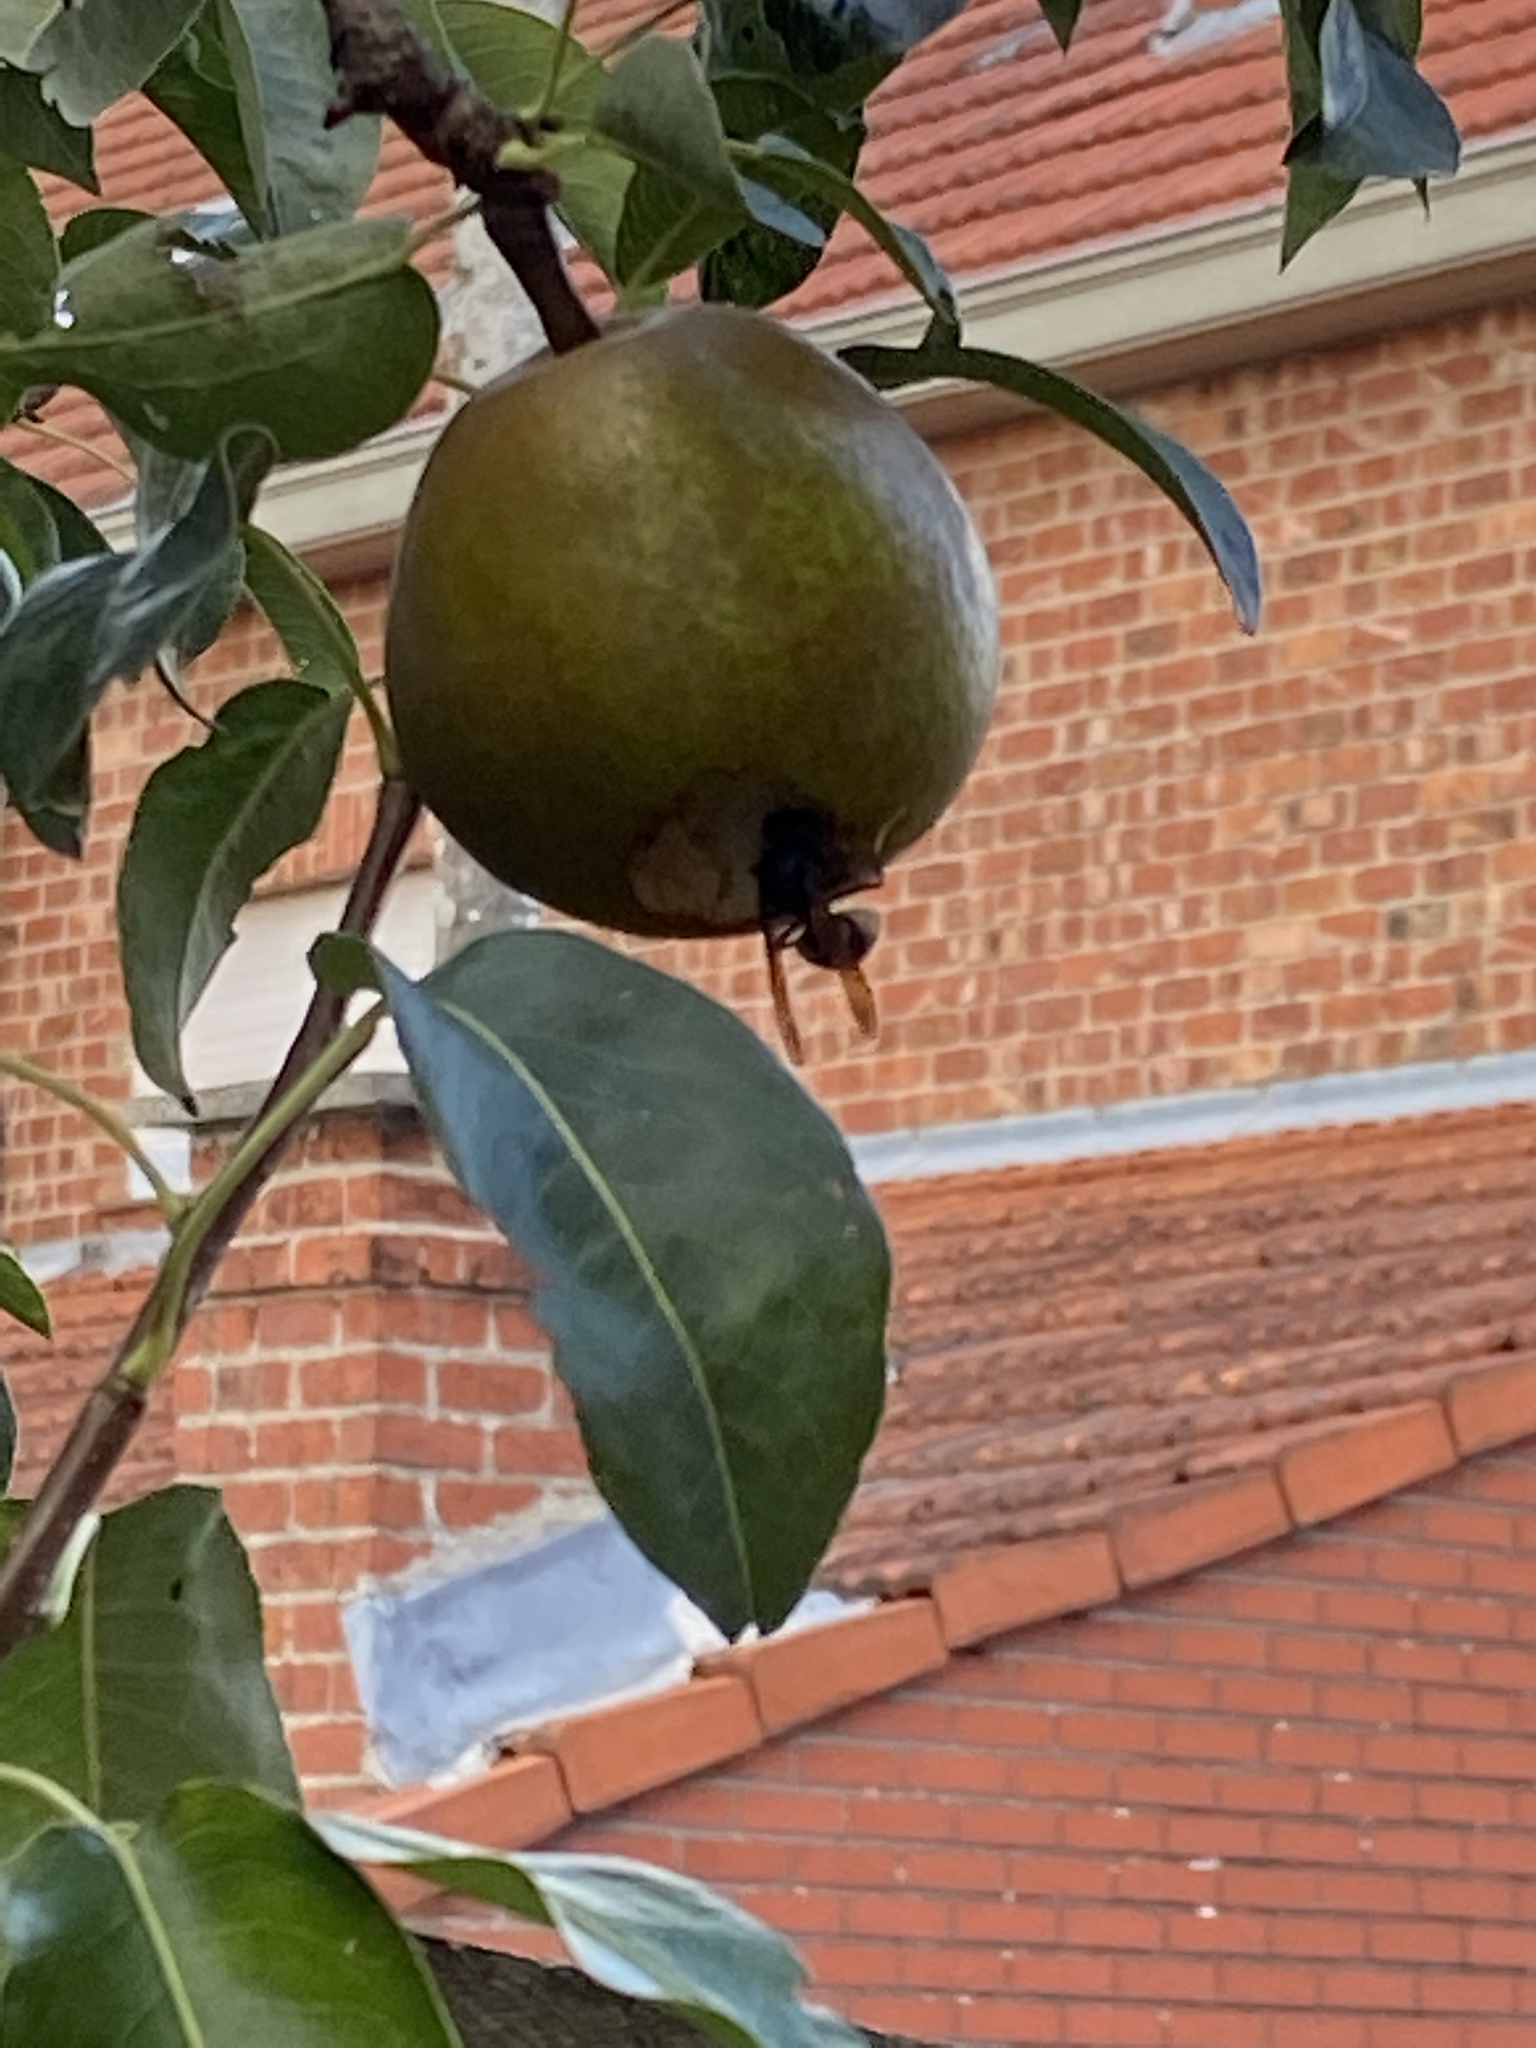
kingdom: Animalia
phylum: Arthropoda
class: Insecta
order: Hymenoptera
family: Vespidae
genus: Vespa
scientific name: Vespa velutina
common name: Asian hornet
